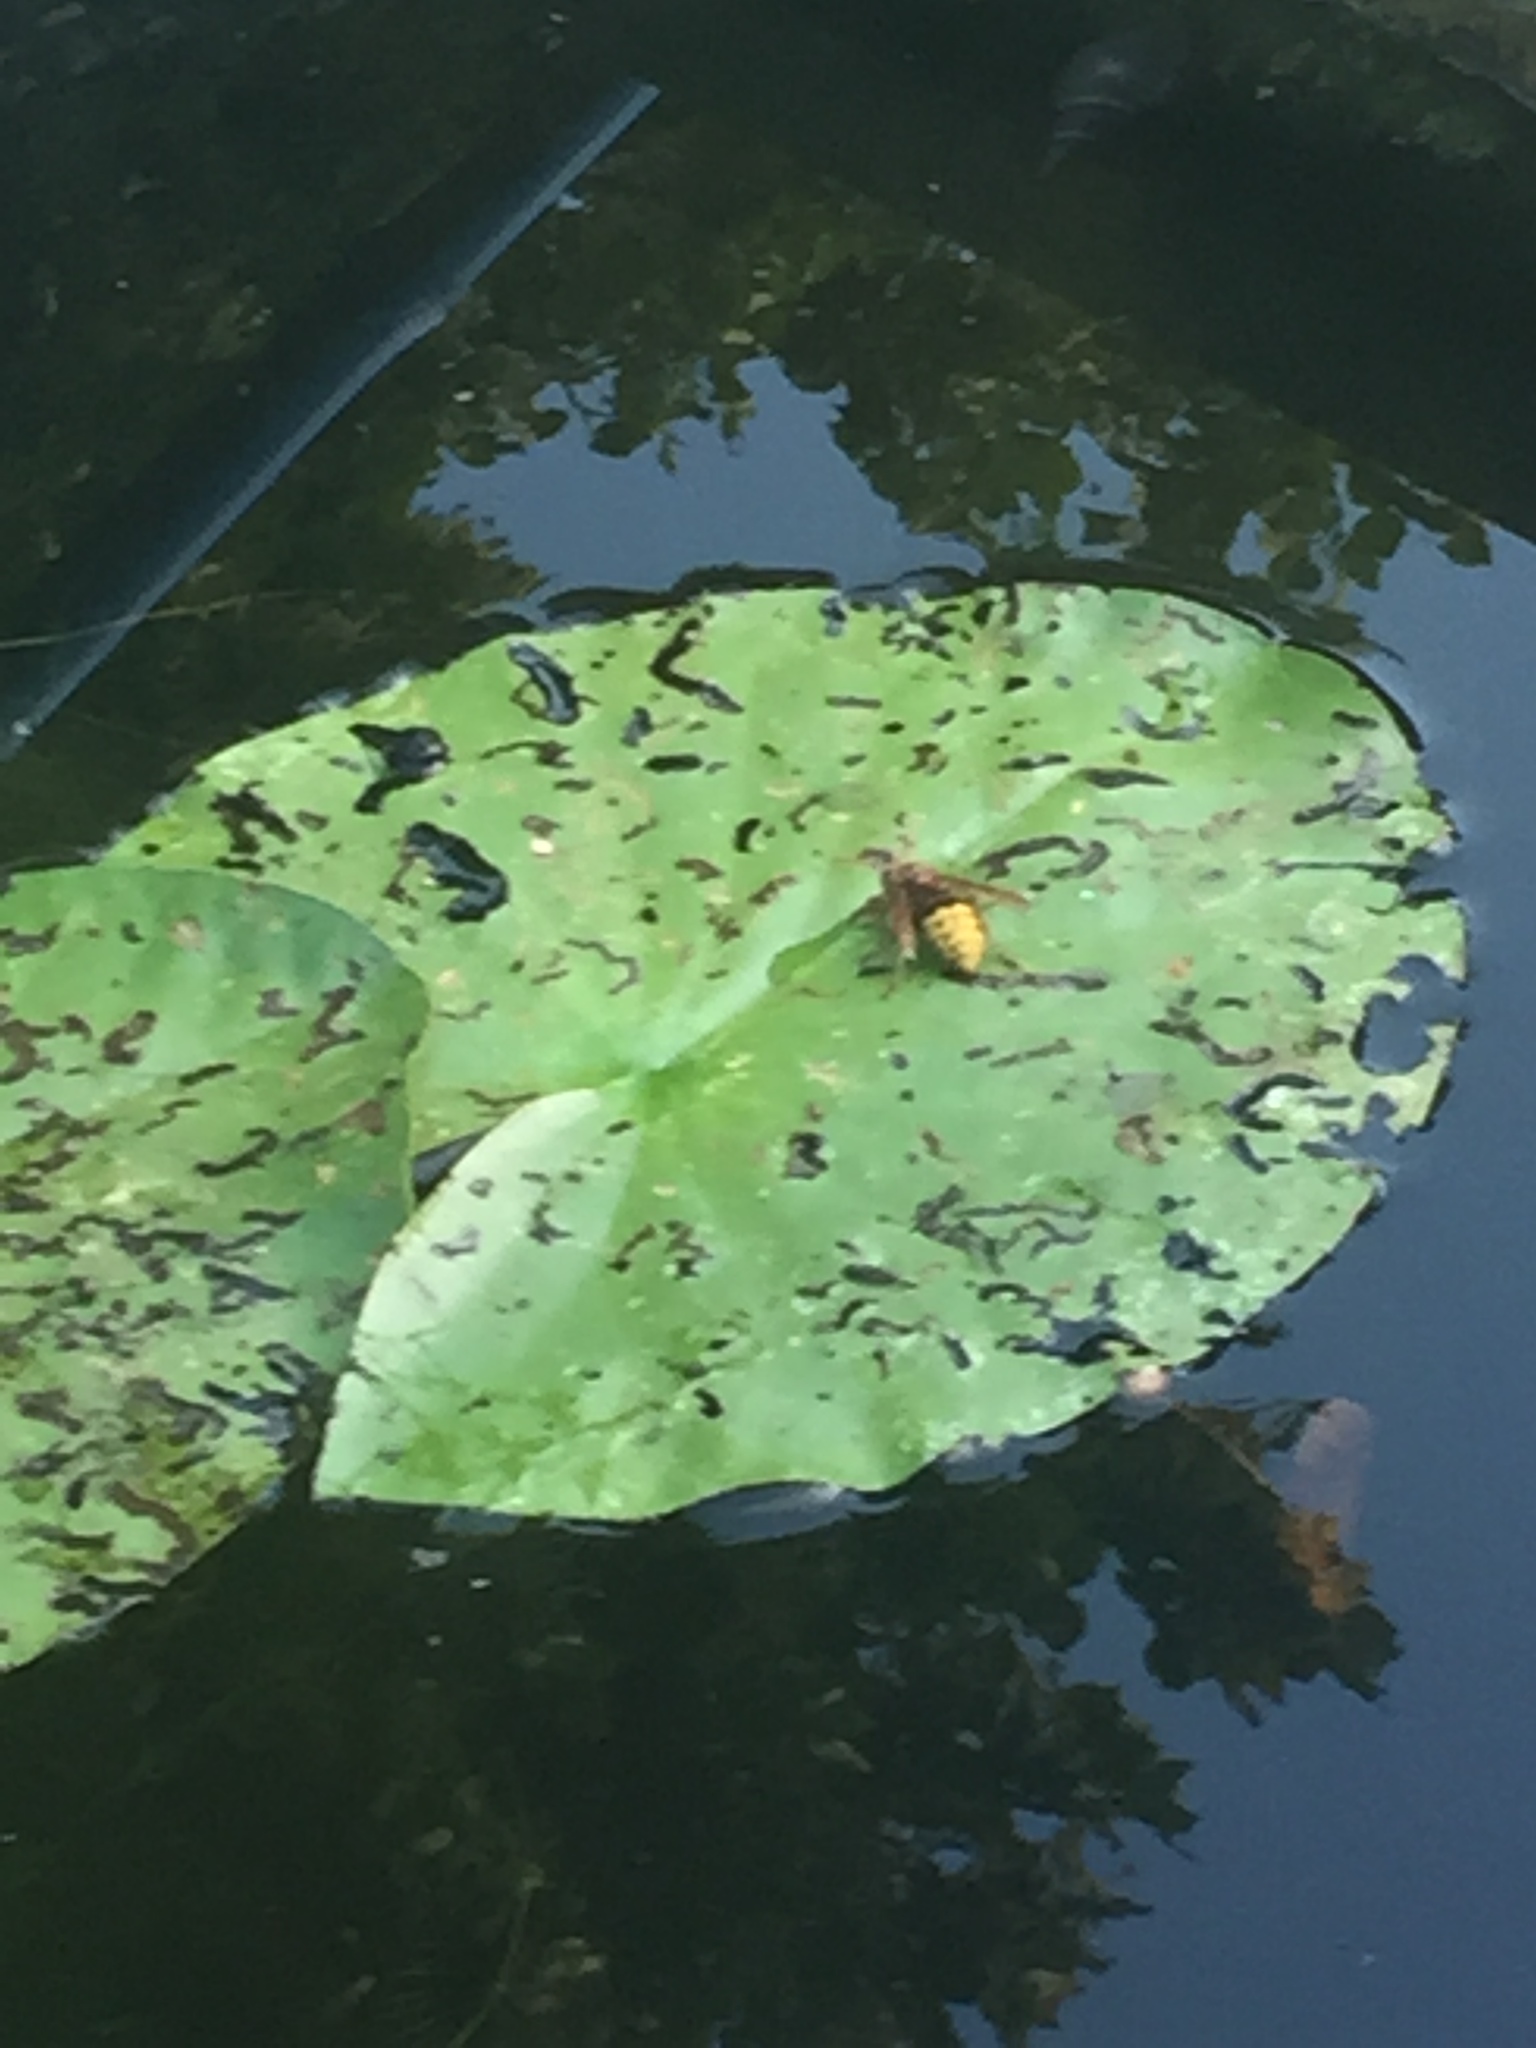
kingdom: Animalia
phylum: Arthropoda
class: Insecta
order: Hymenoptera
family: Vespidae
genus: Vespa
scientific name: Vespa crabro
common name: Hornet
